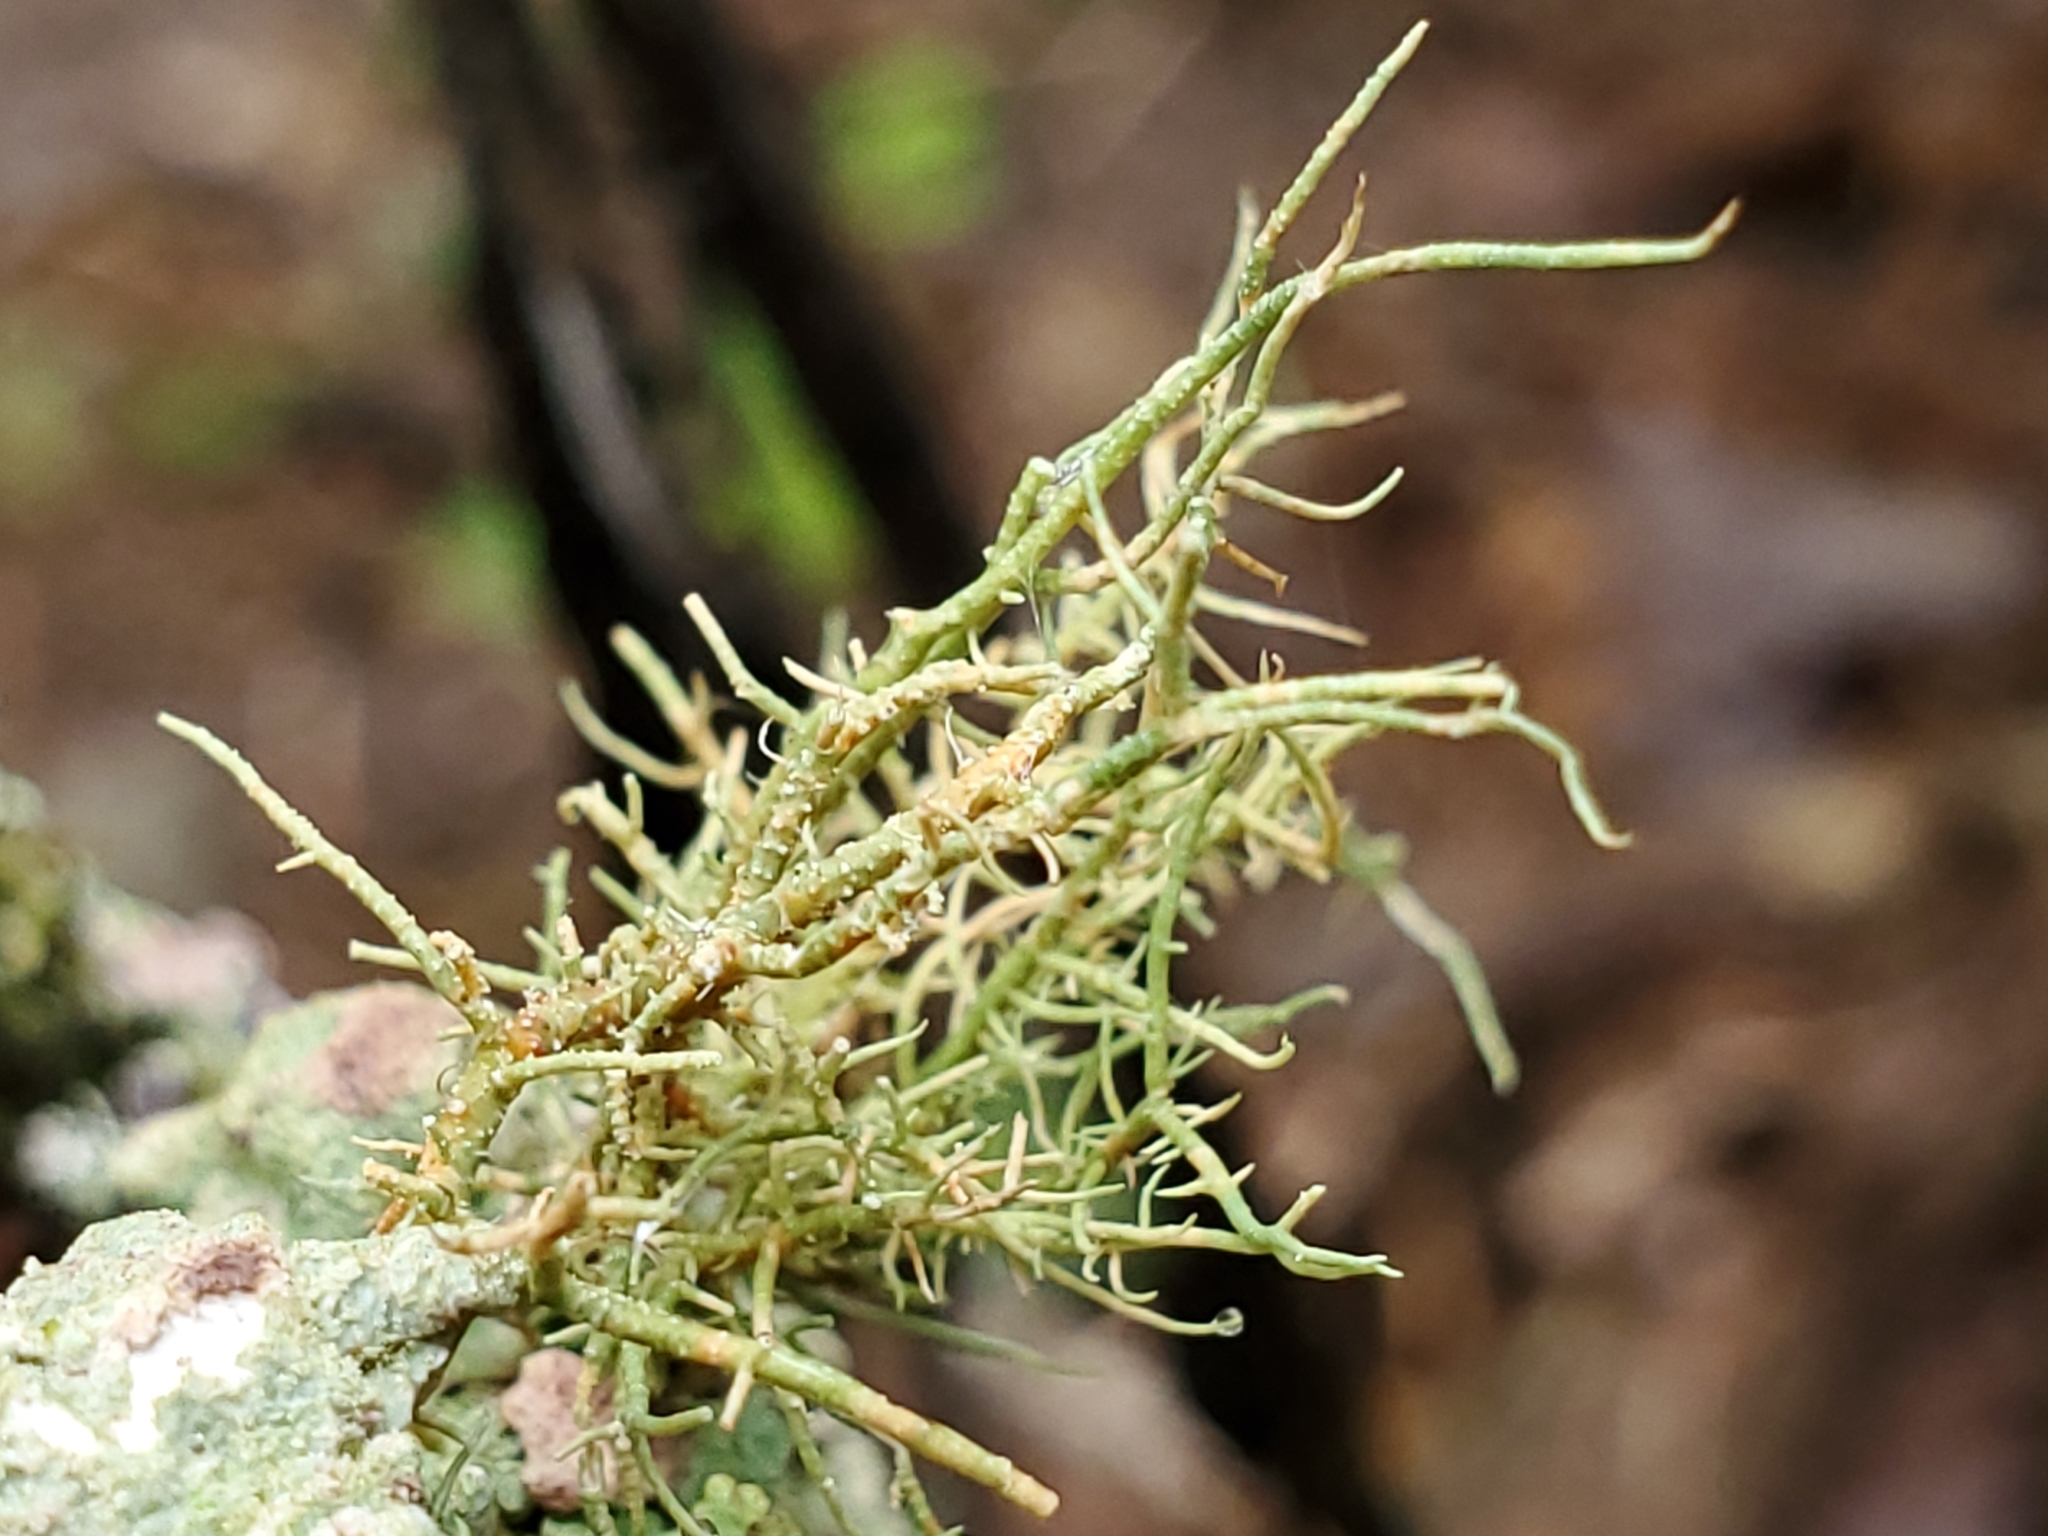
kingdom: Fungi
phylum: Ascomycota
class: Lecanoromycetes
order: Lecanorales
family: Parmeliaceae
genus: Usnea
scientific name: Usnea rubicunda
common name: Red beard lichen
